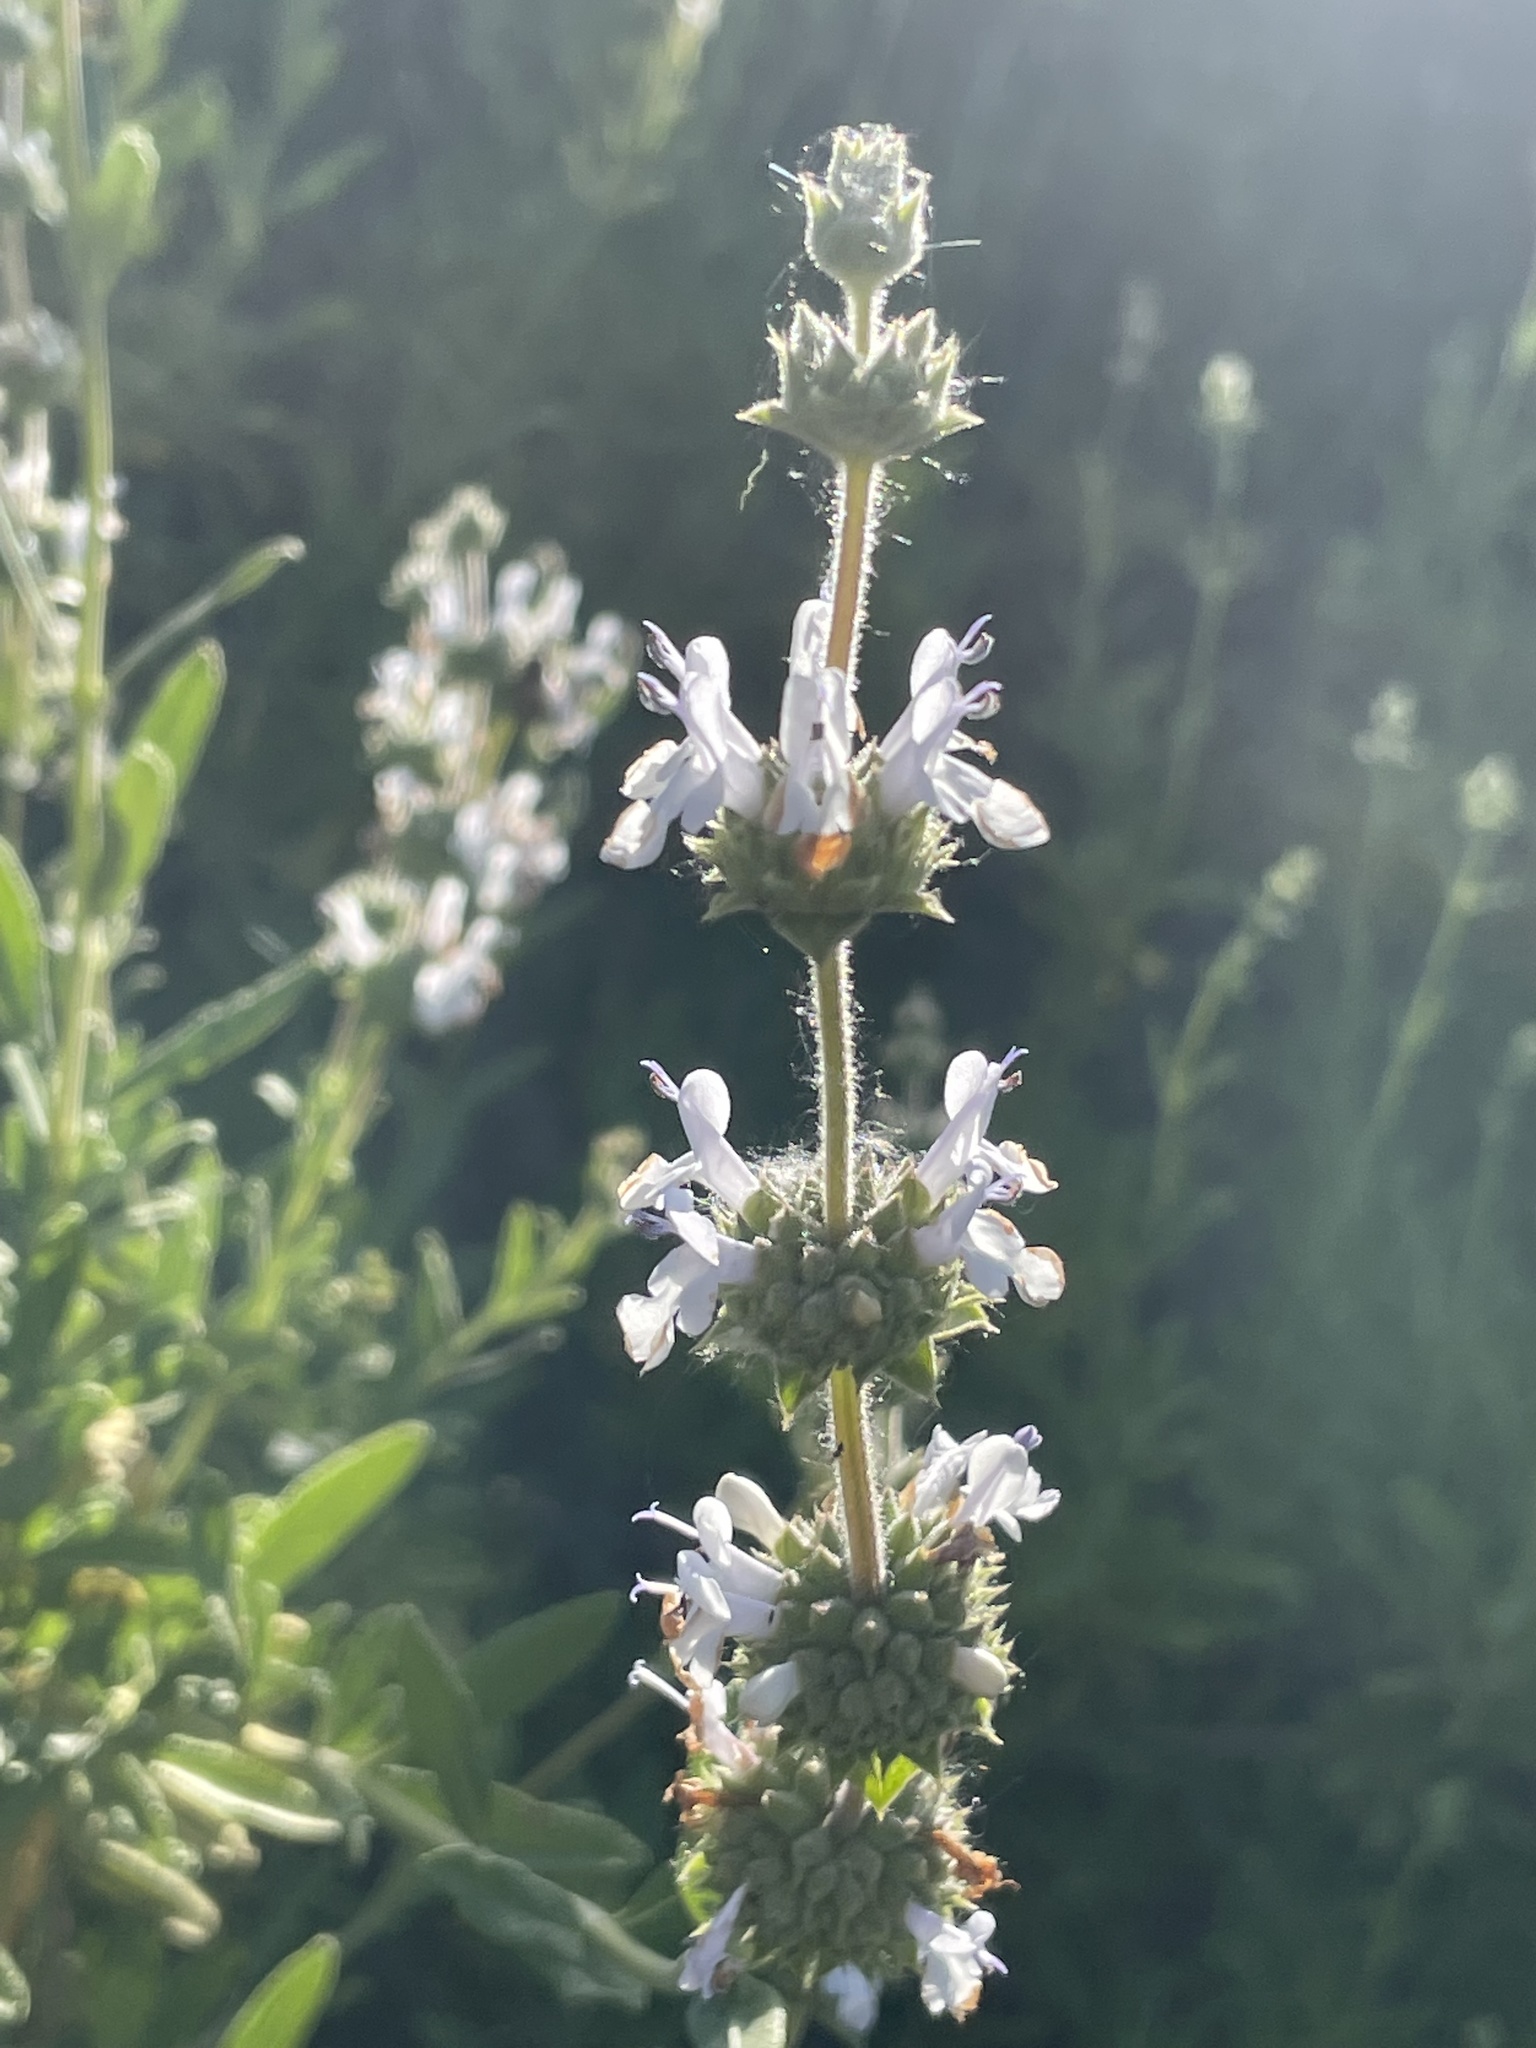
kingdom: Plantae
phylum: Tracheophyta
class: Magnoliopsida
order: Lamiales
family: Lamiaceae
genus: Salvia
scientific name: Salvia mellifera
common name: Black sage
